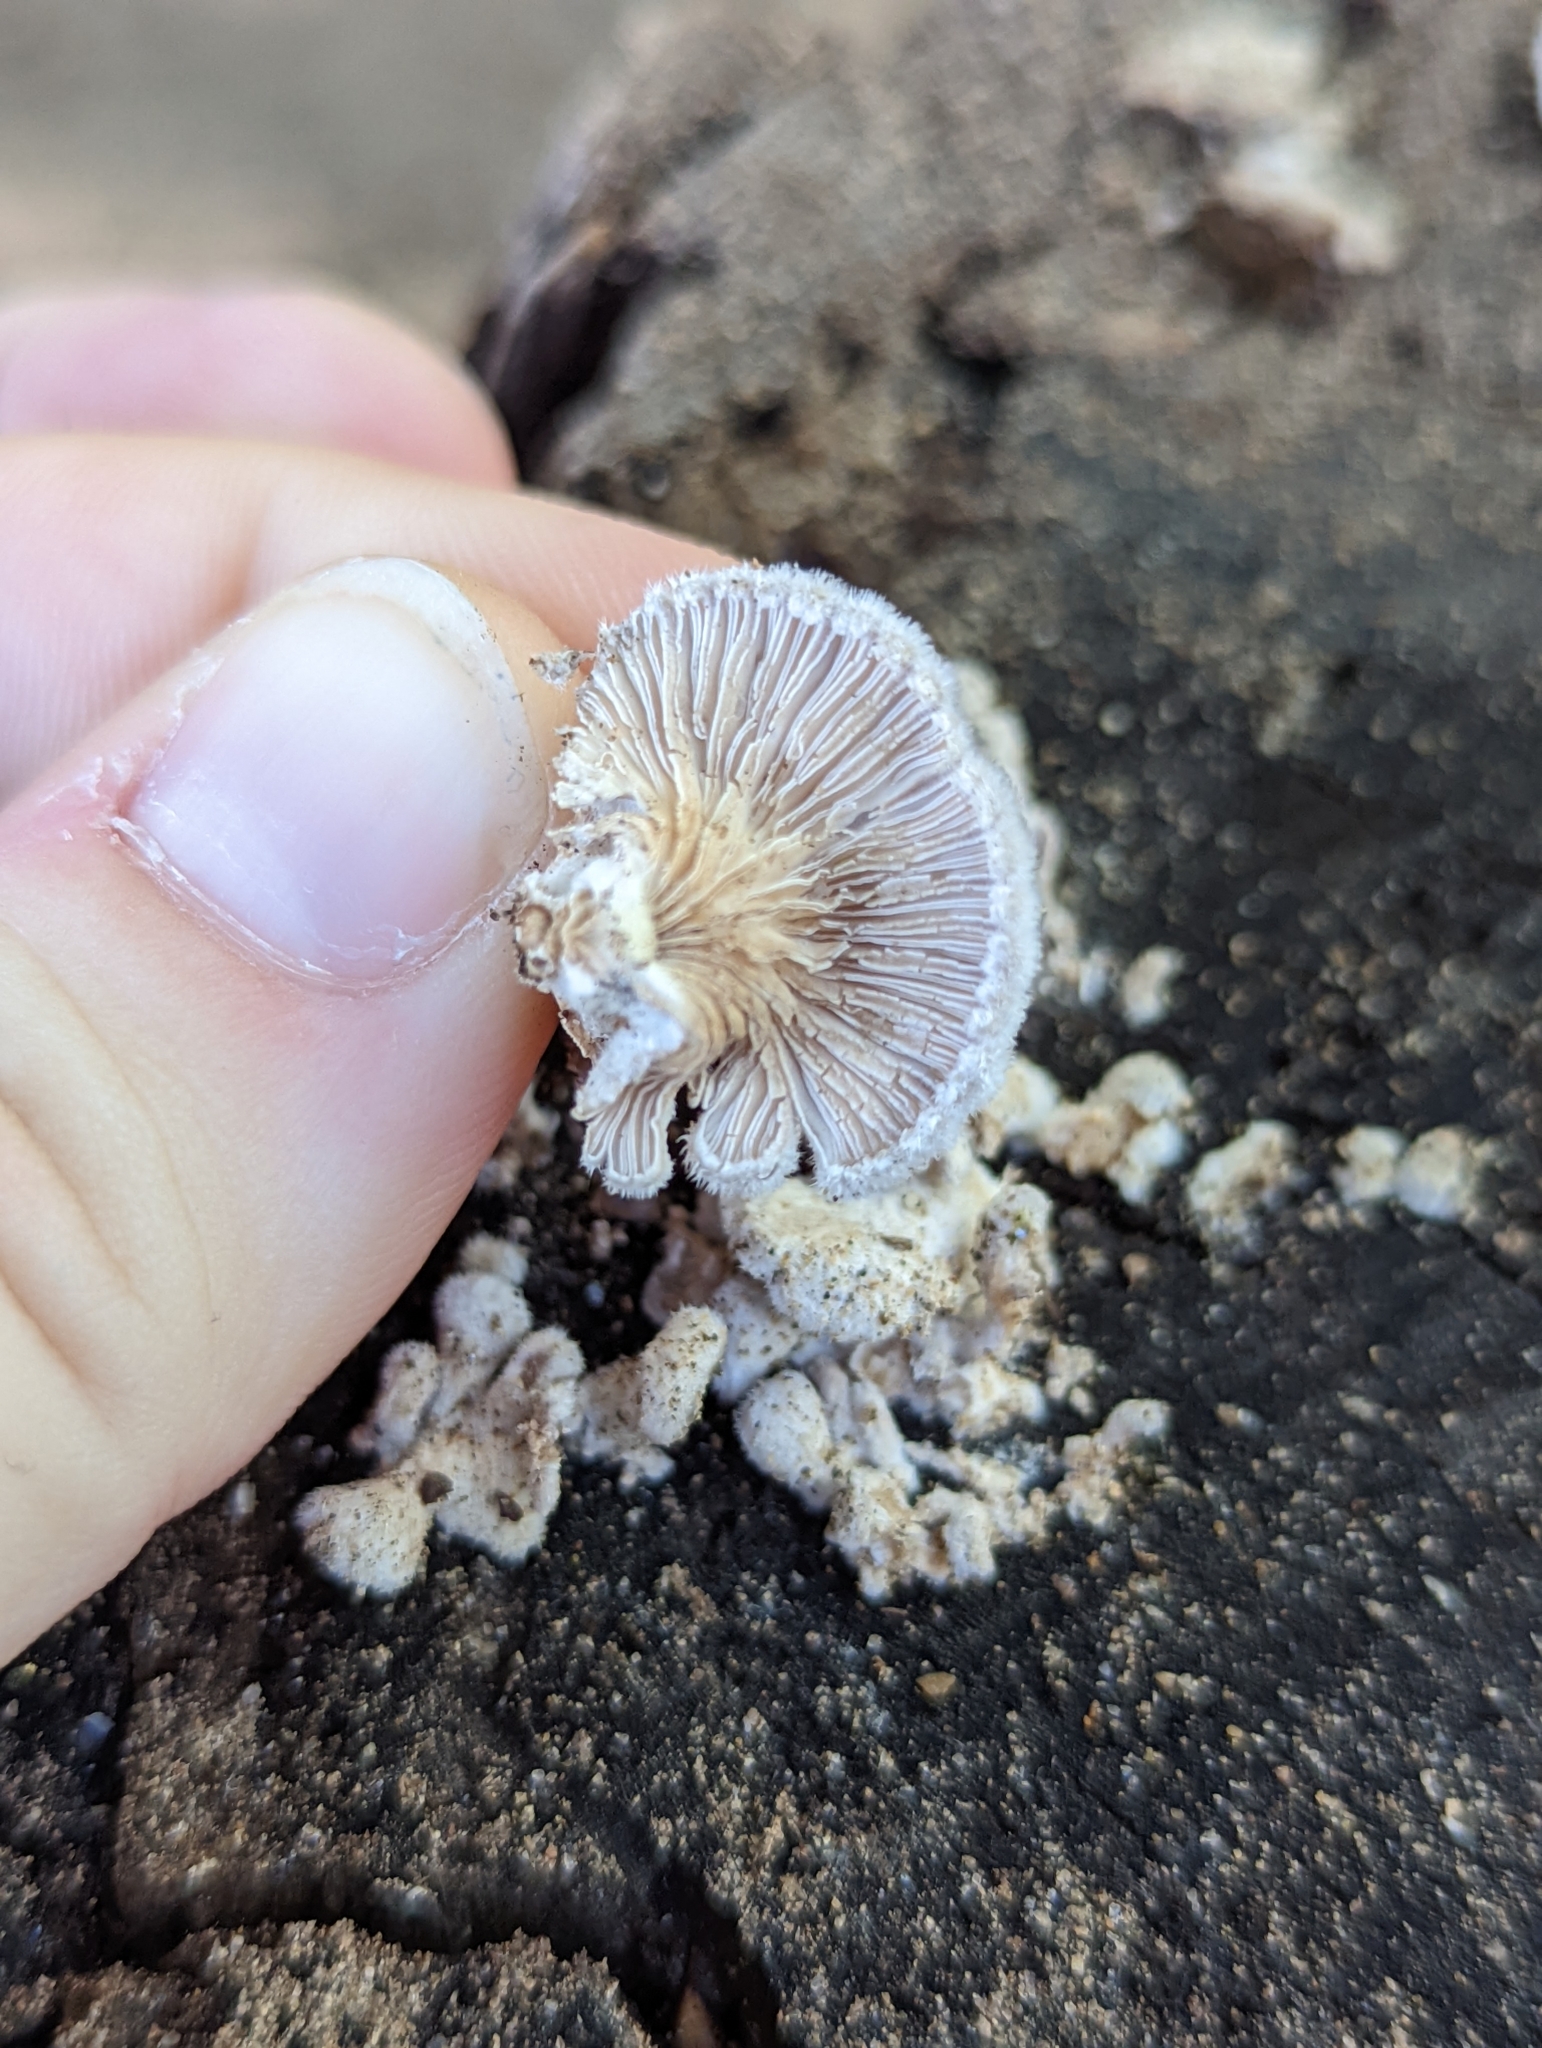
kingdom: Fungi
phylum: Basidiomycota
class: Agaricomycetes
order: Agaricales
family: Schizophyllaceae
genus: Schizophyllum
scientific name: Schizophyllum commune
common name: Common porecrust
